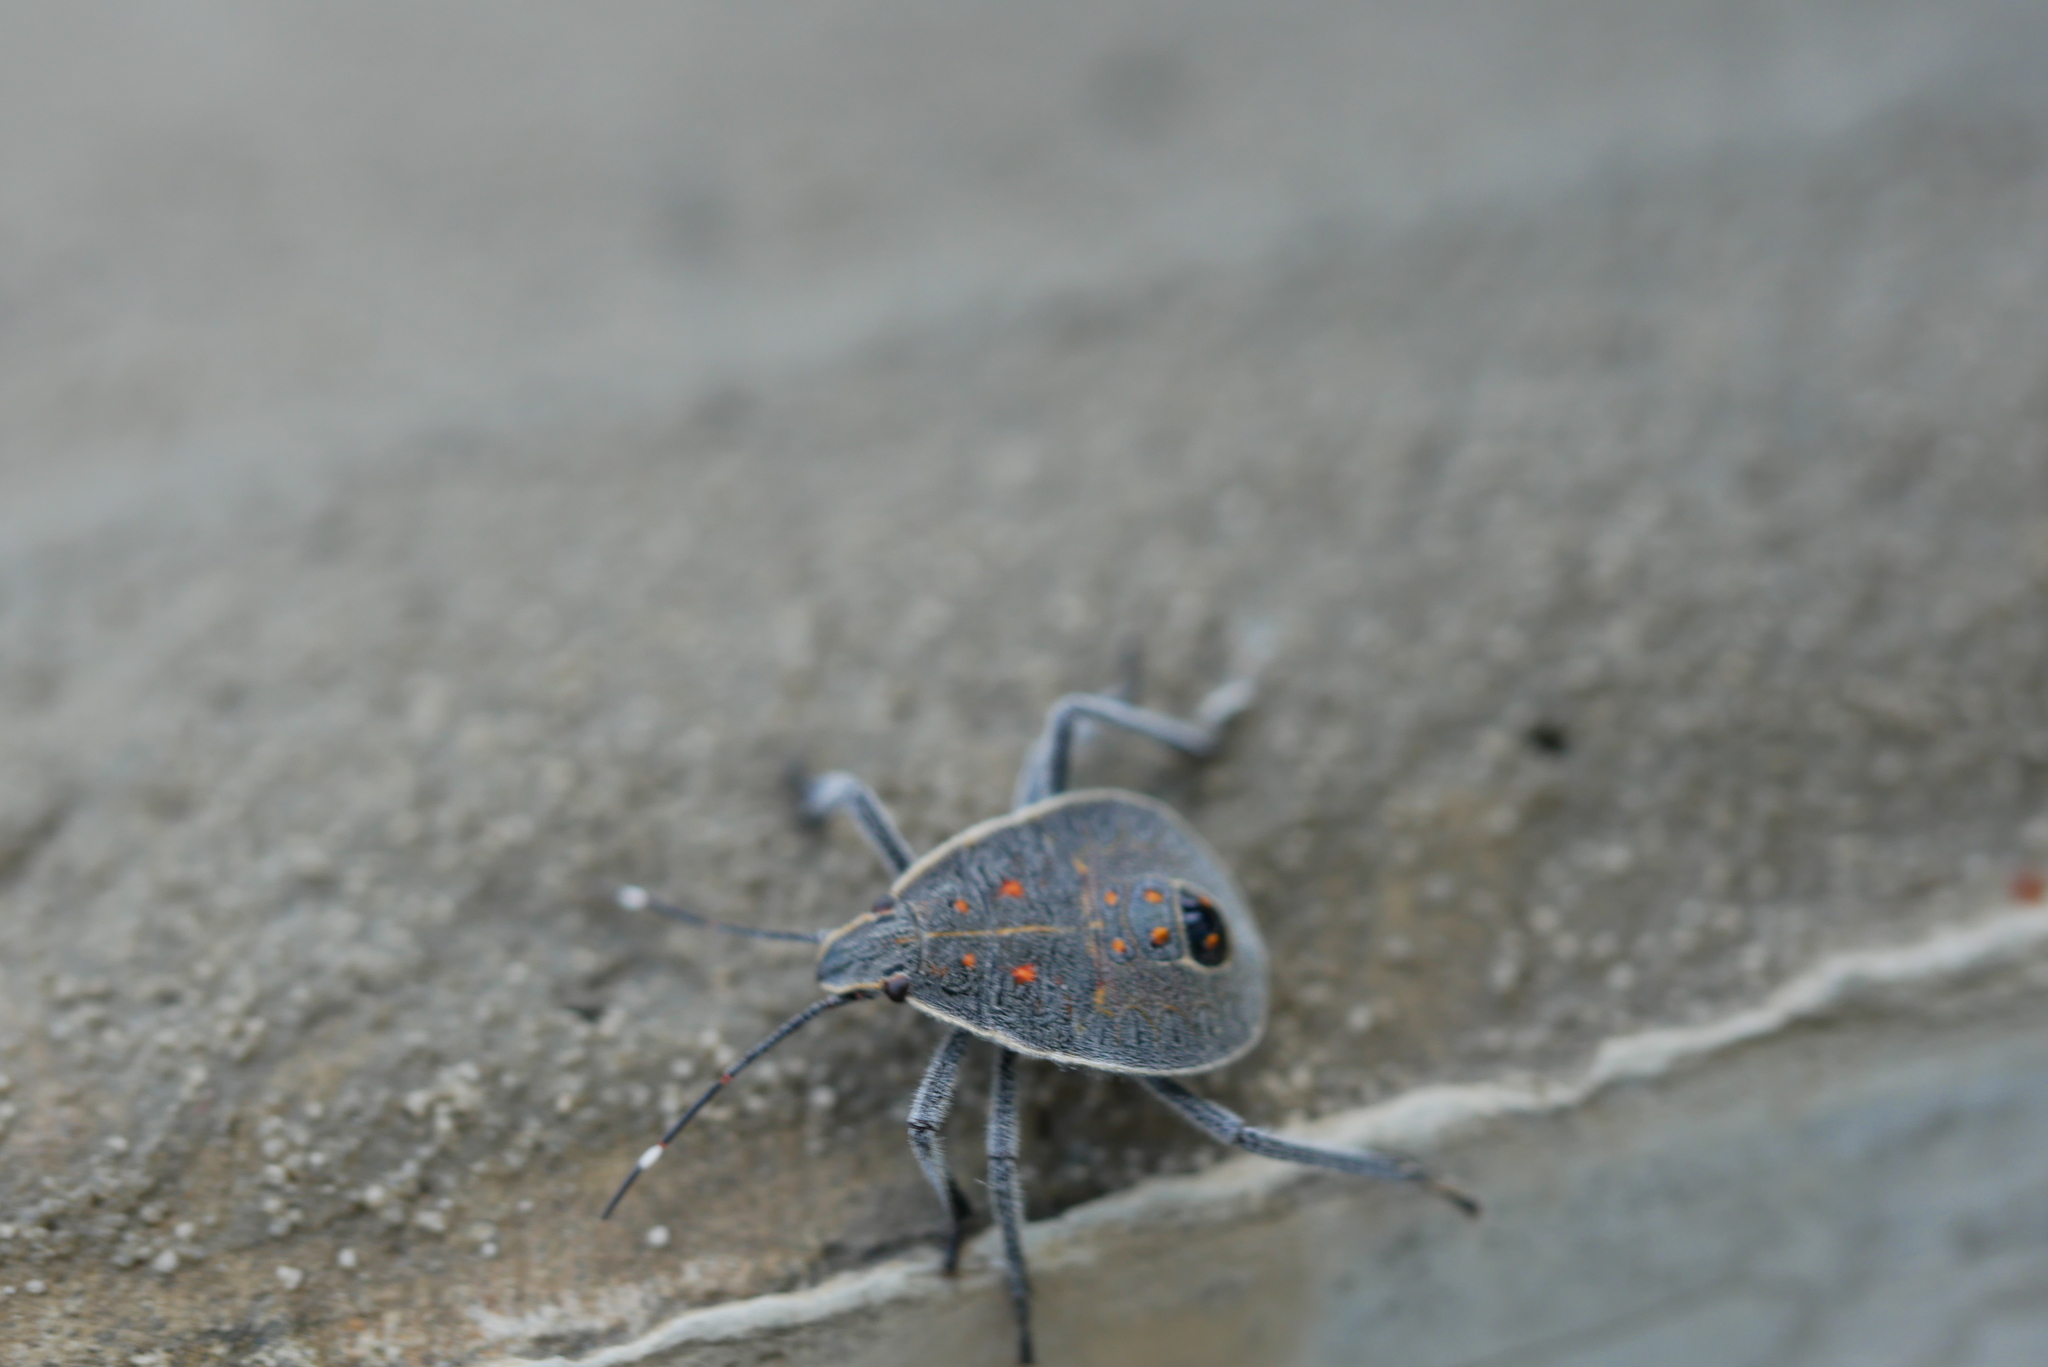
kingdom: Animalia
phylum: Arthropoda
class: Insecta
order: Hemiptera
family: Pentatomidae
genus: Erthesina
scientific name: Erthesina fullo
